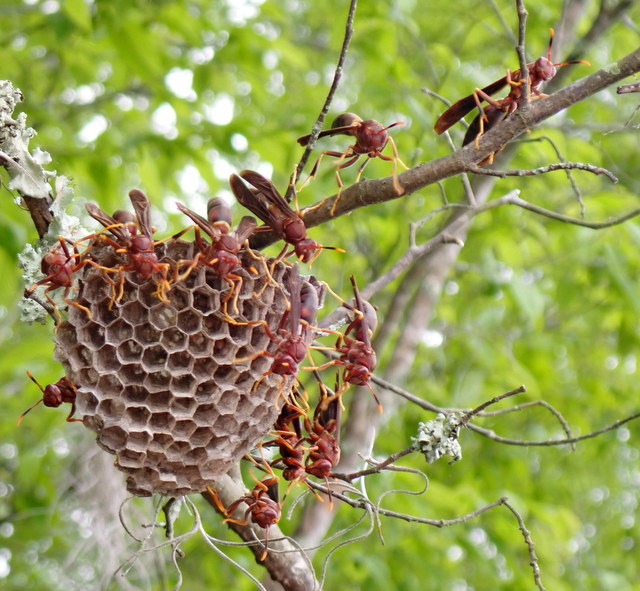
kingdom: Animalia
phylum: Arthropoda
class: Insecta
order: Hymenoptera
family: Eumenidae
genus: Polistes
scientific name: Polistes annularis
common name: Ringed paper wasp
